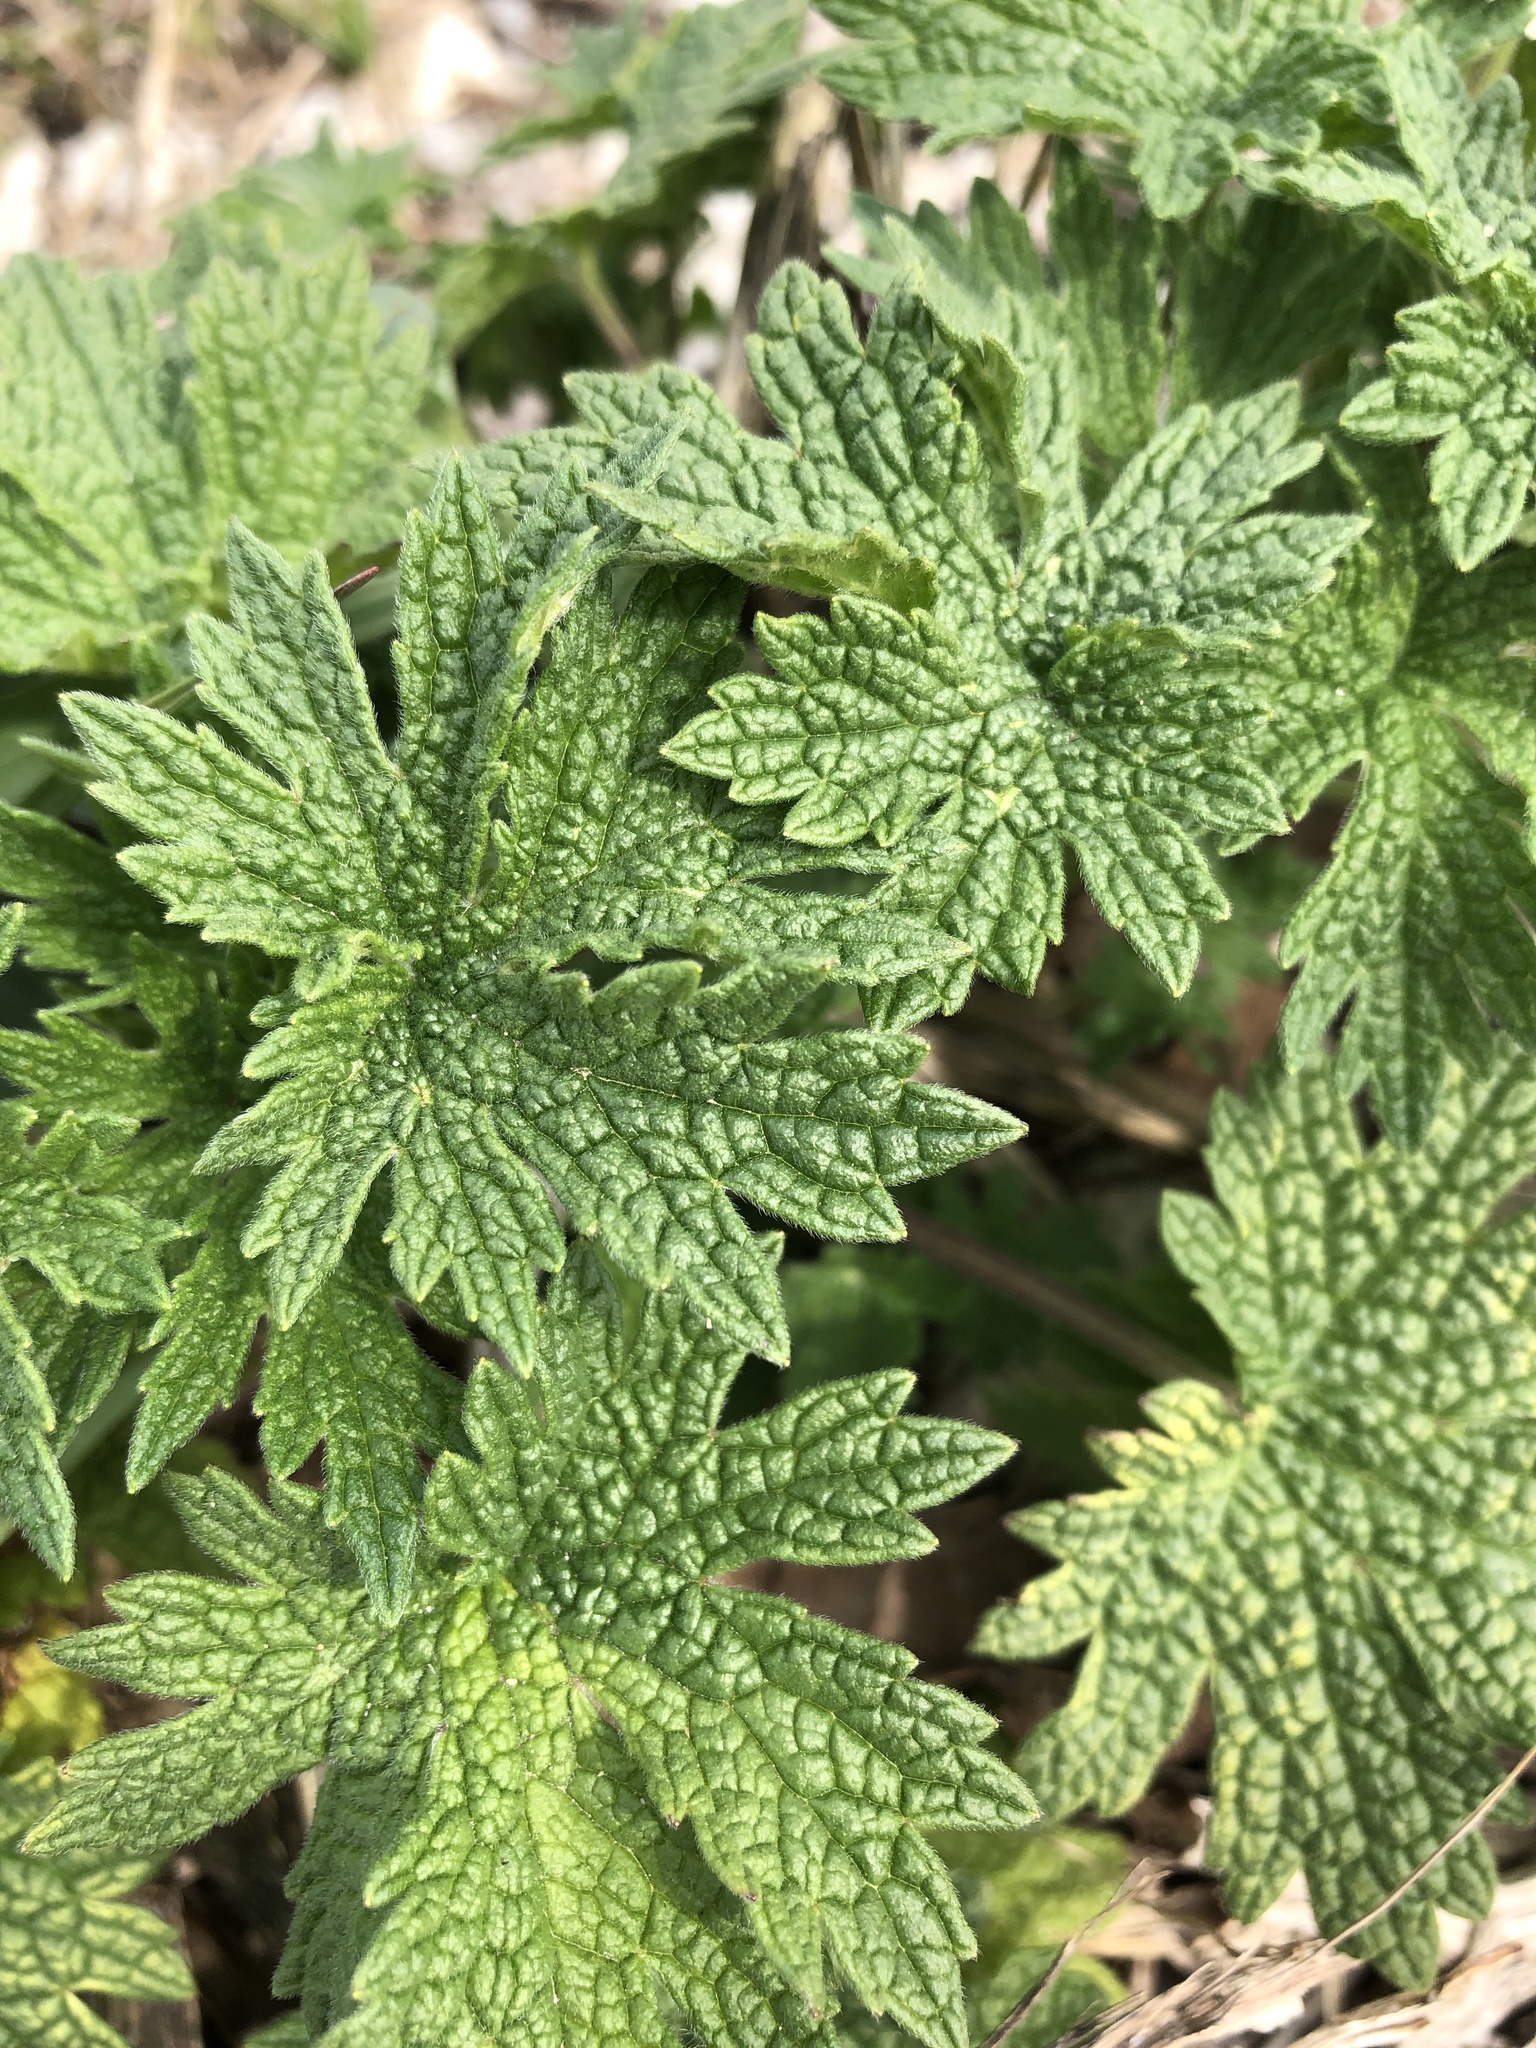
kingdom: Plantae
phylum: Tracheophyta
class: Magnoliopsida
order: Lamiales
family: Lamiaceae
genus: Leonurus
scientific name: Leonurus cardiaca
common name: Motherwort
